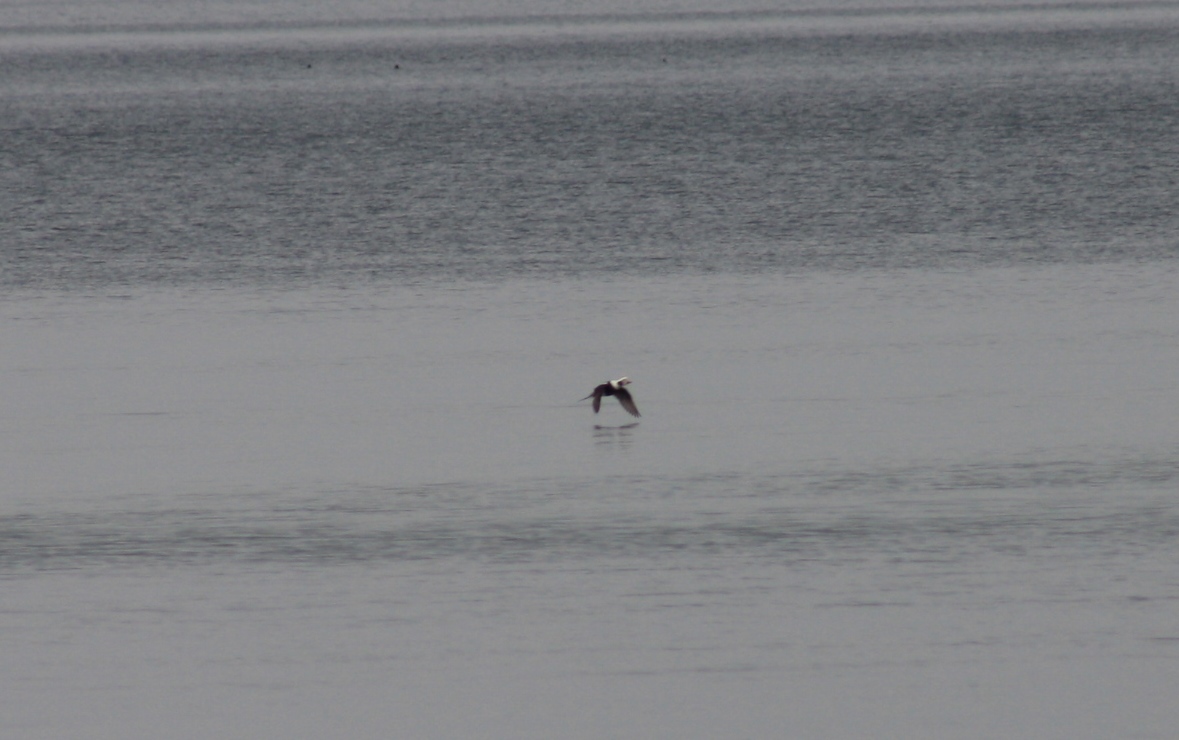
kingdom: Animalia
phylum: Chordata
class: Aves
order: Anseriformes
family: Anatidae
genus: Clangula
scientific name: Clangula hyemalis
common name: Long-tailed duck
